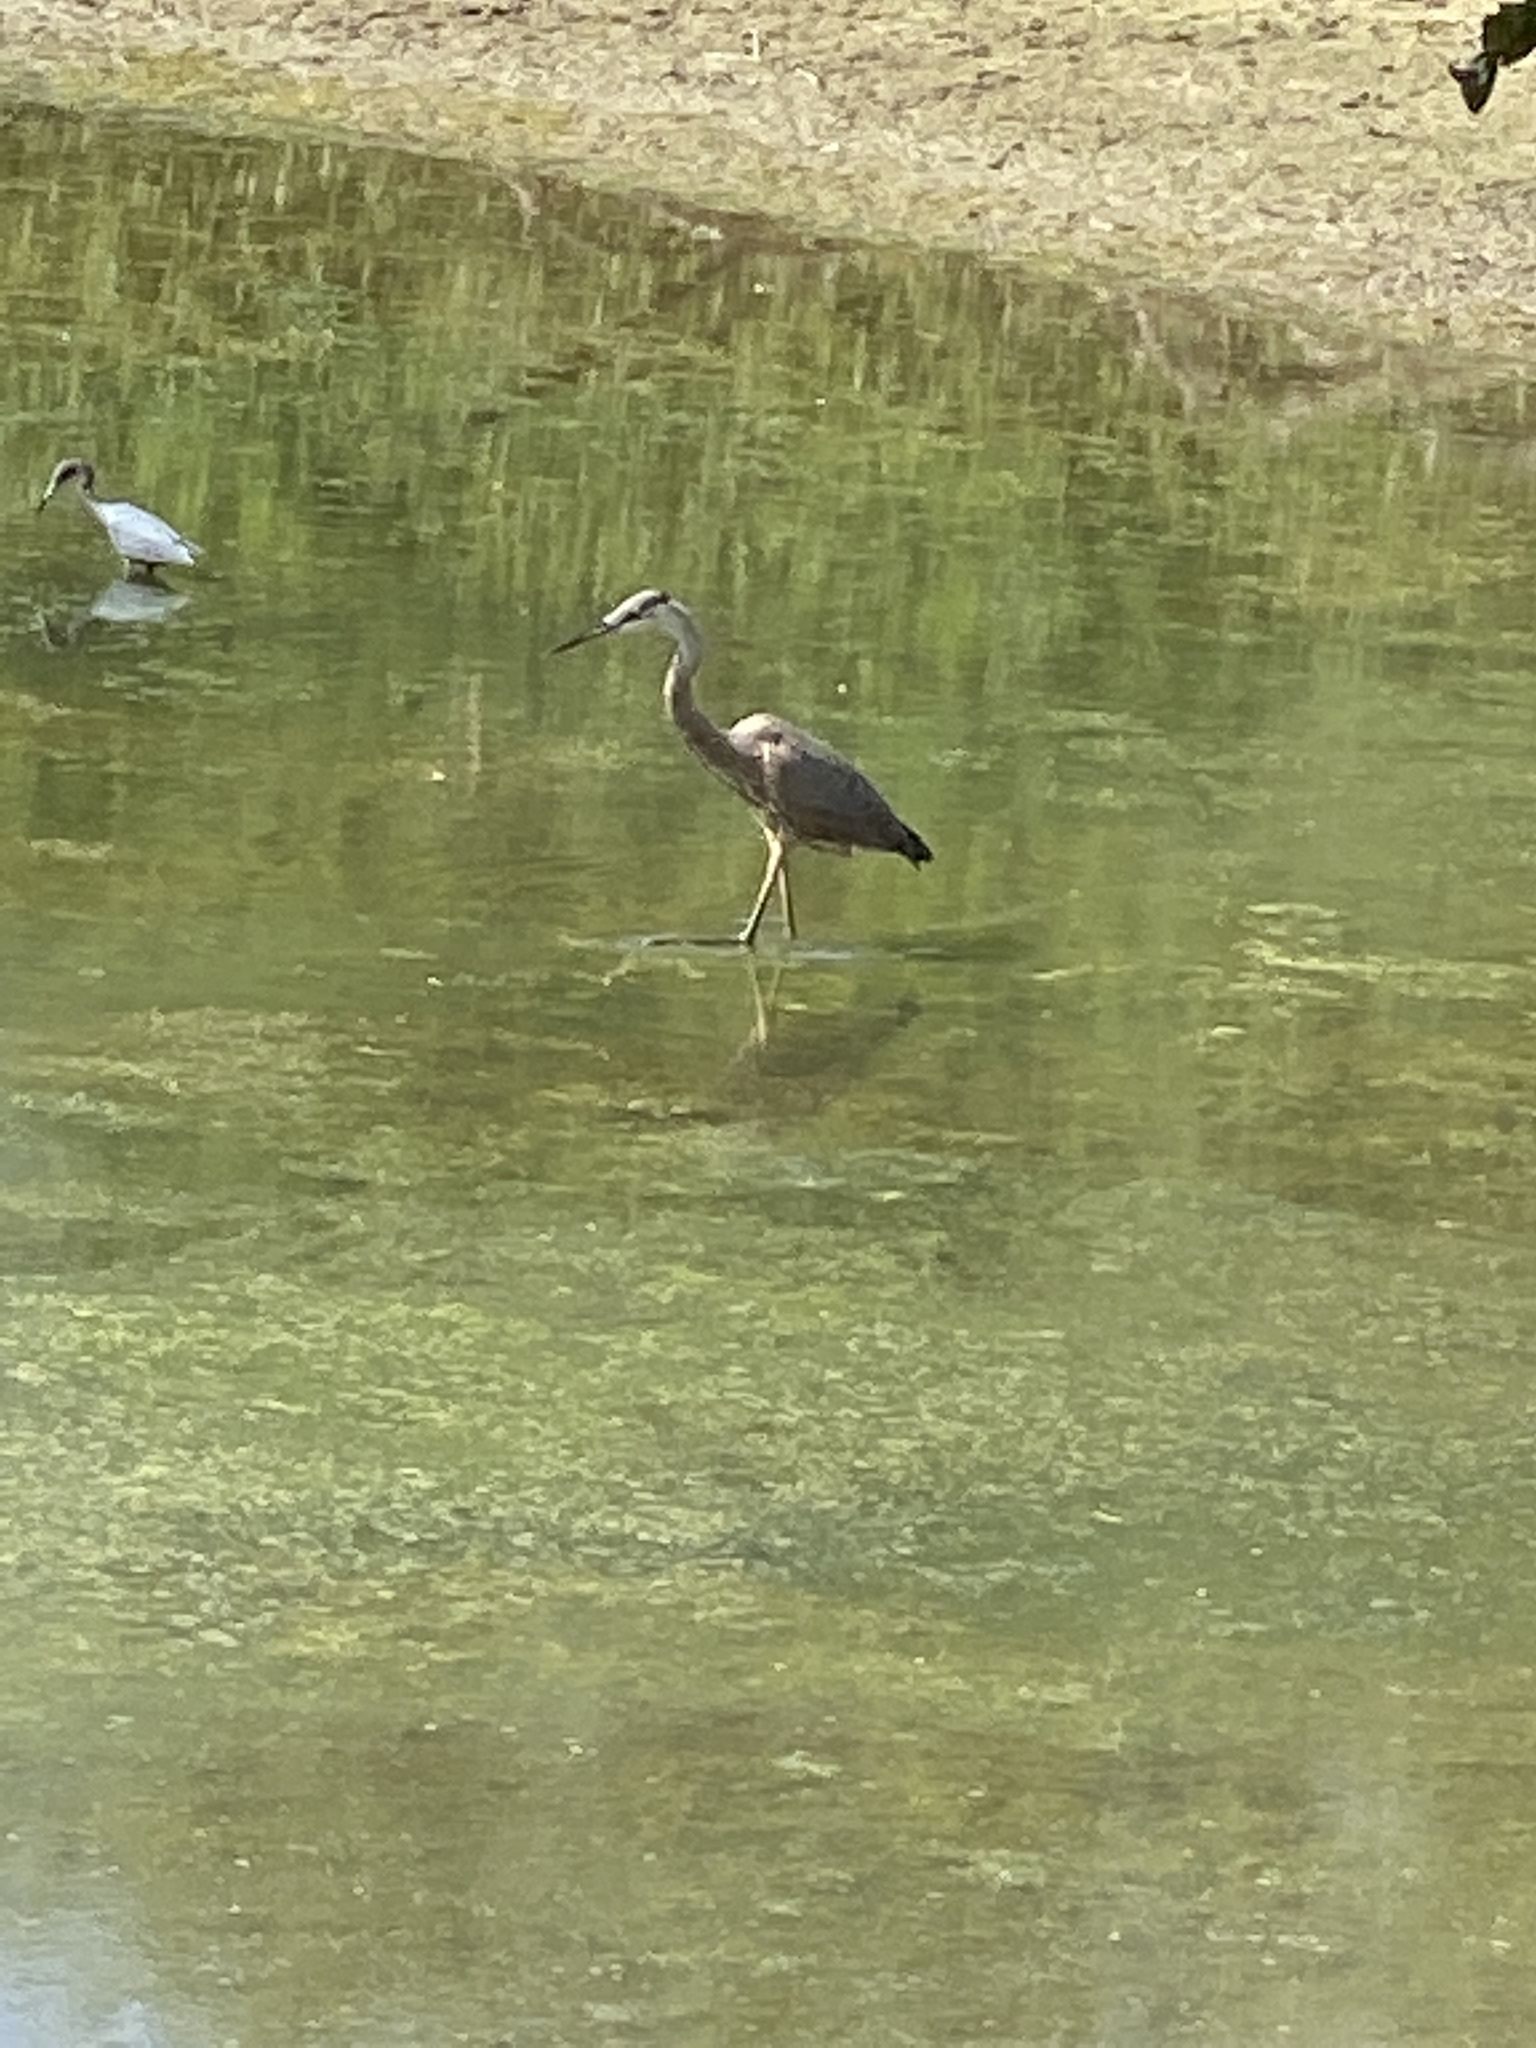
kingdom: Animalia
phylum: Chordata
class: Aves
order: Pelecaniformes
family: Ardeidae
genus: Ardea
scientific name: Ardea herodias
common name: Great blue heron
